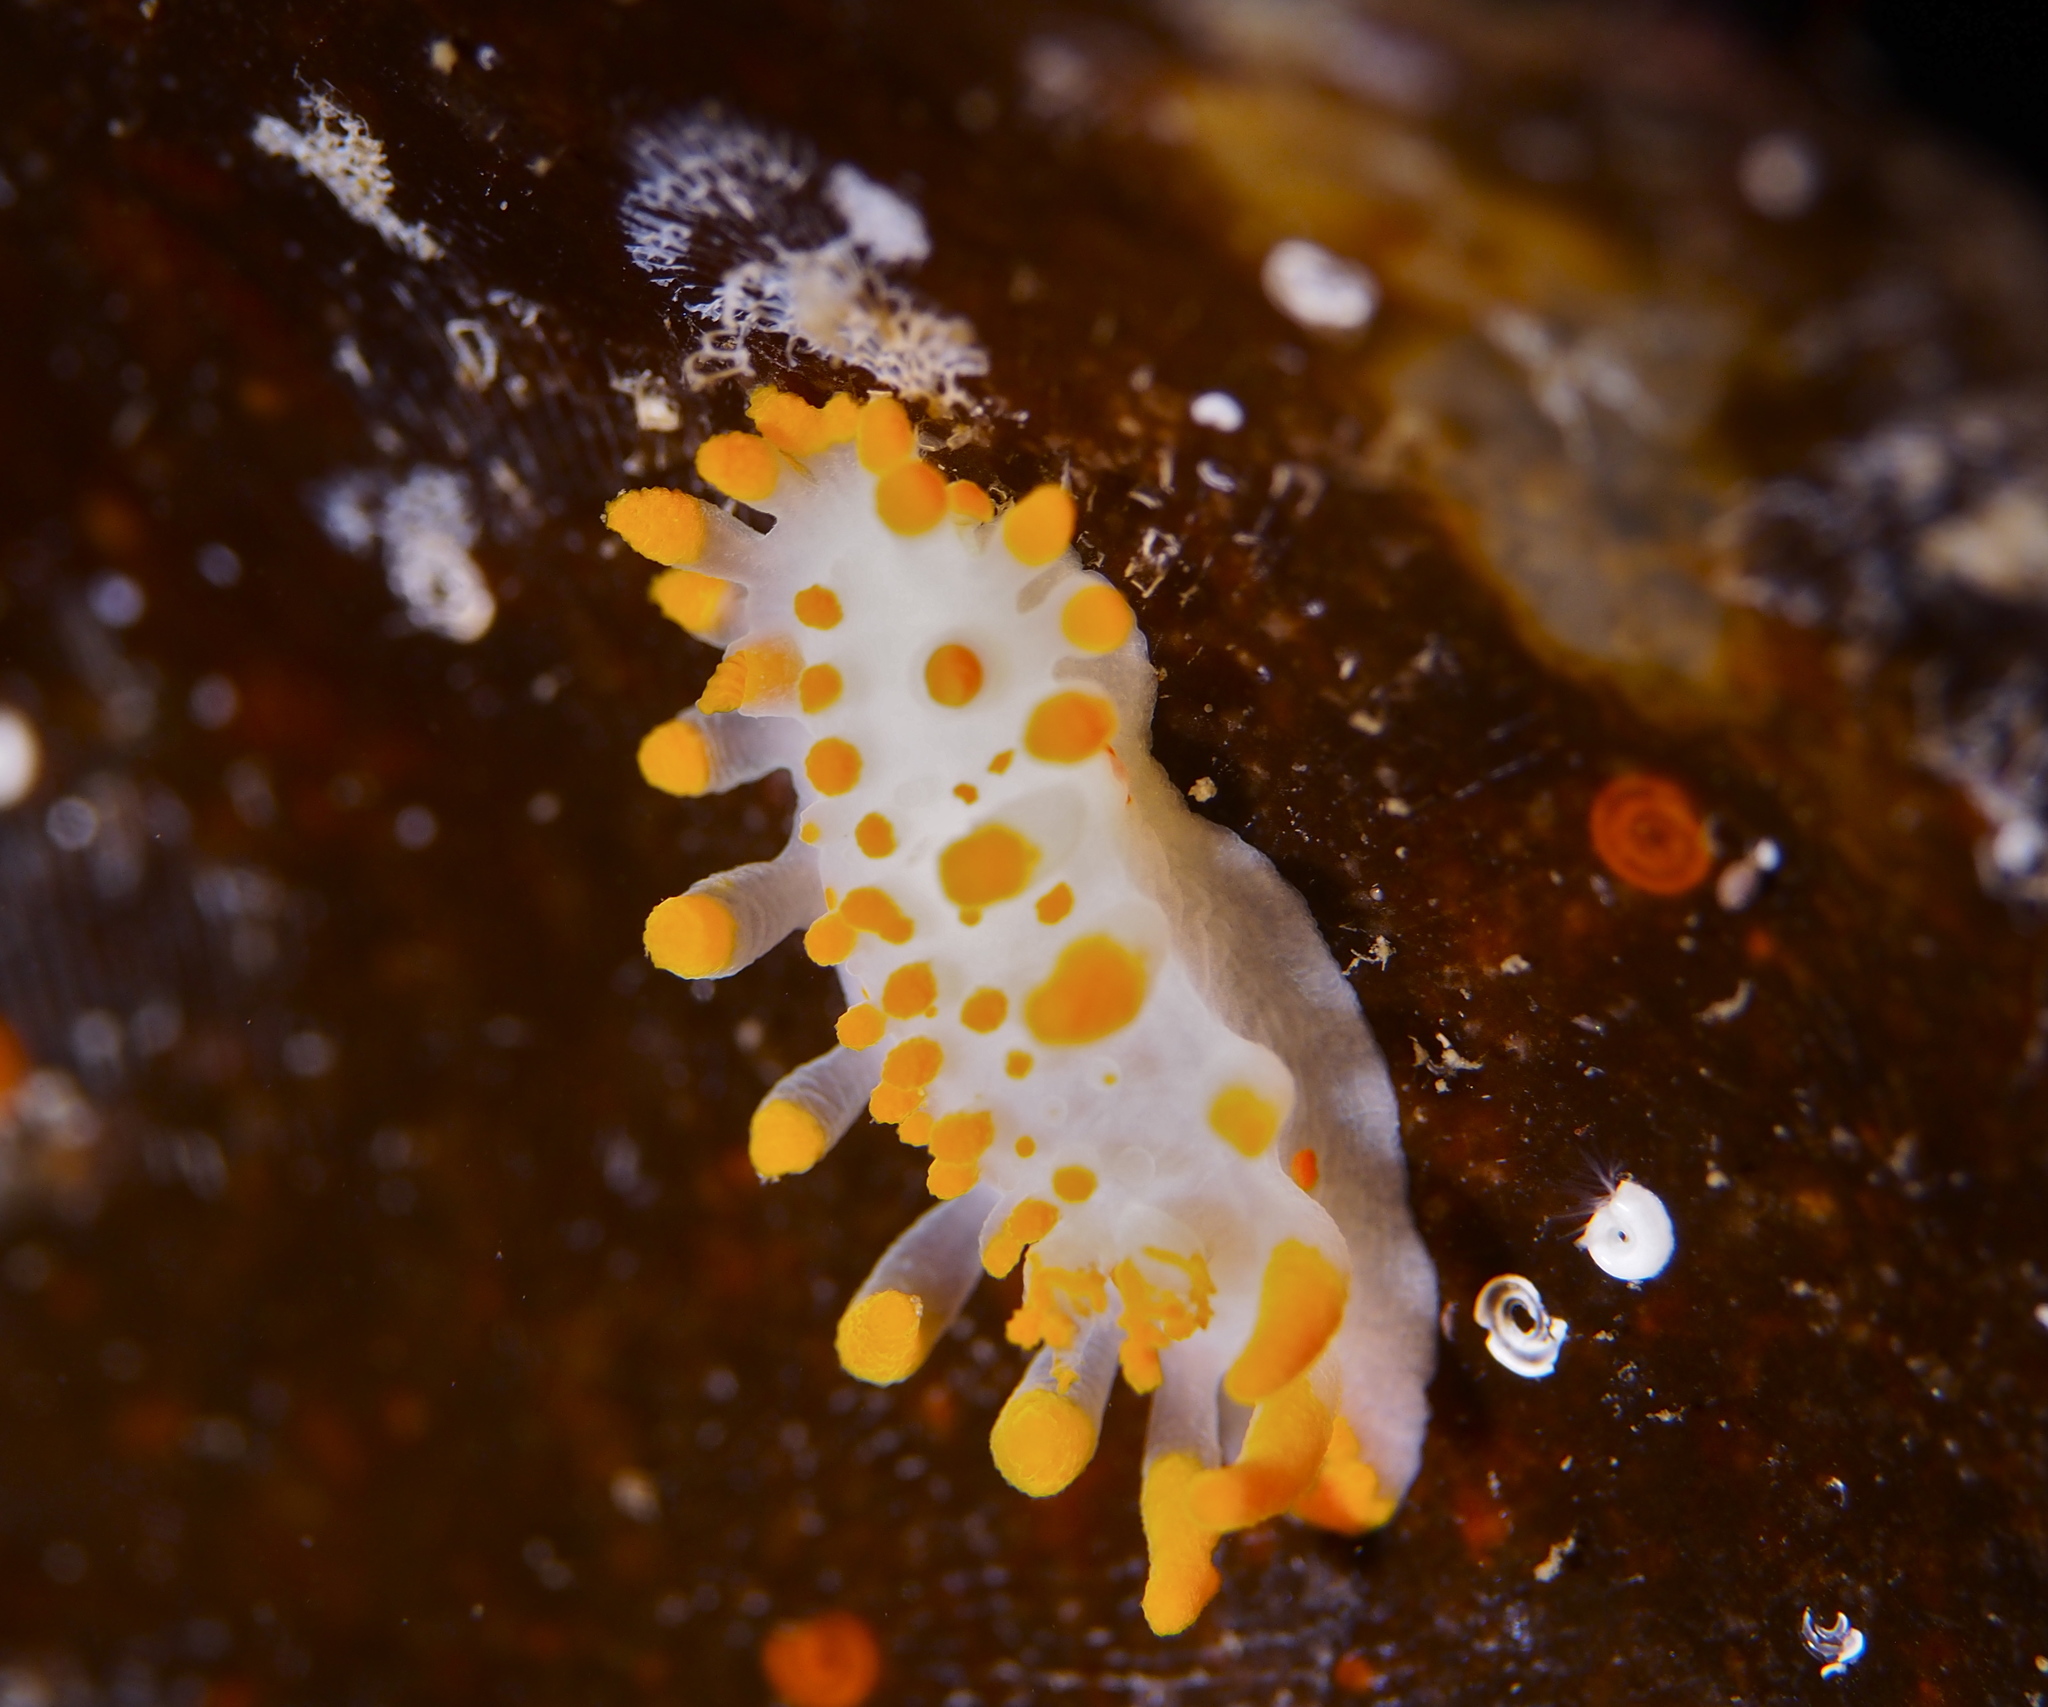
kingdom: Animalia
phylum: Mollusca
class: Gastropoda
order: Nudibranchia
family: Polyceridae
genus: Limacia
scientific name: Limacia clavigera
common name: Orange-clubbed sea slug
